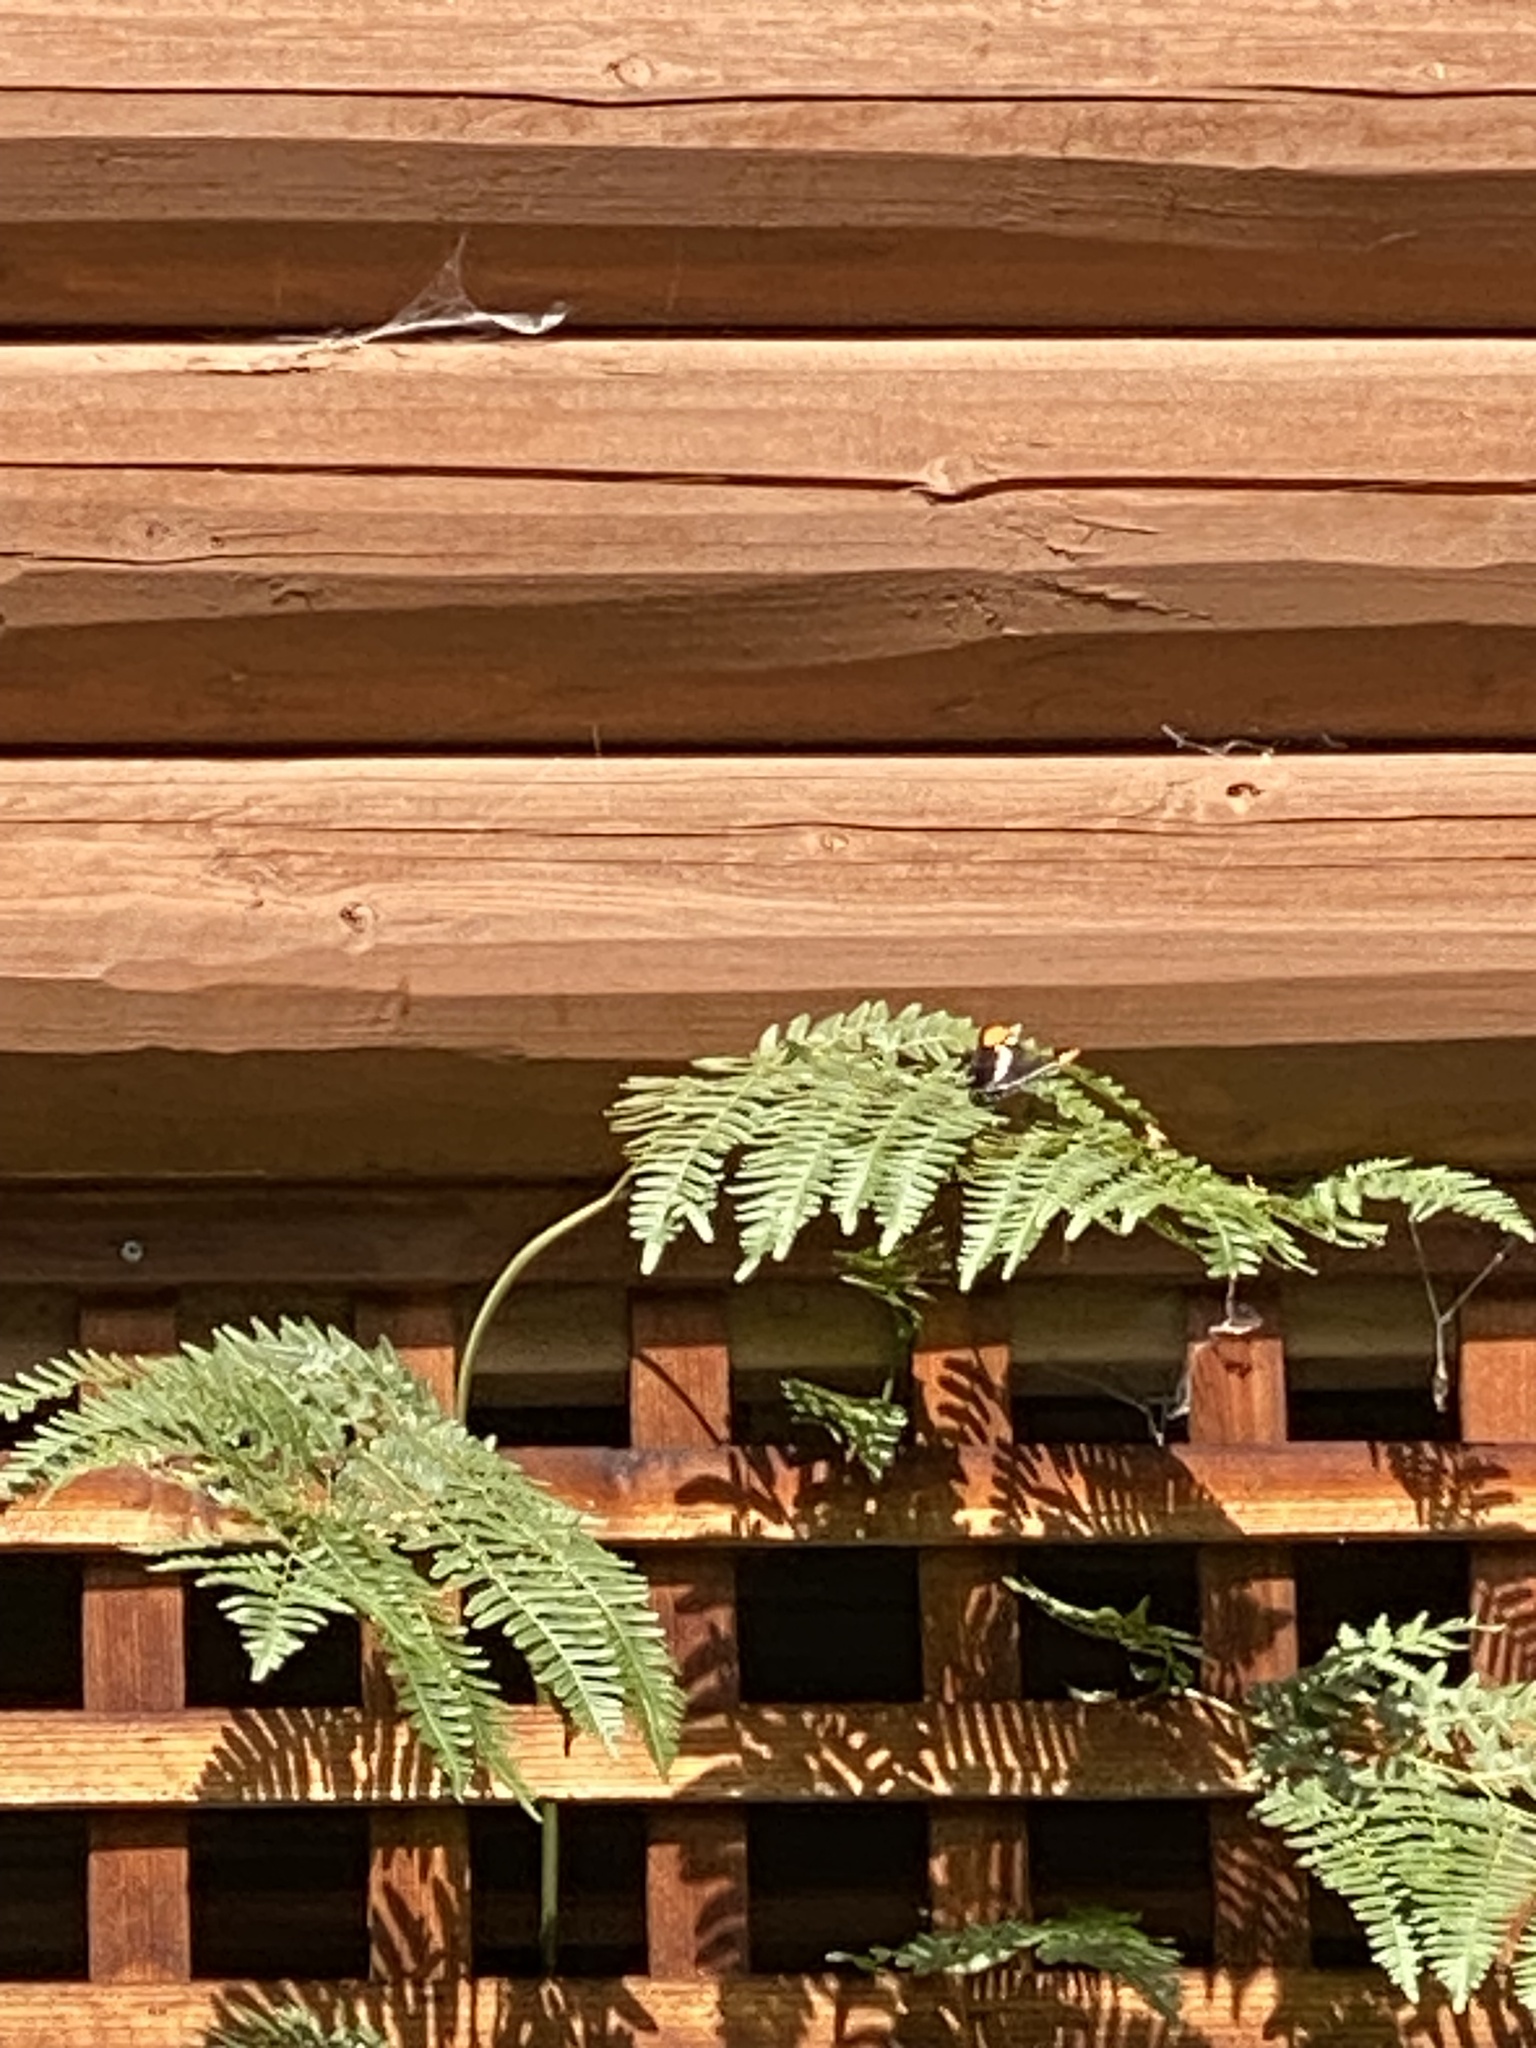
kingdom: Animalia
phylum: Arthropoda
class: Insecta
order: Lepidoptera
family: Nymphalidae
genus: Limenitis
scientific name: Limenitis bredowii
